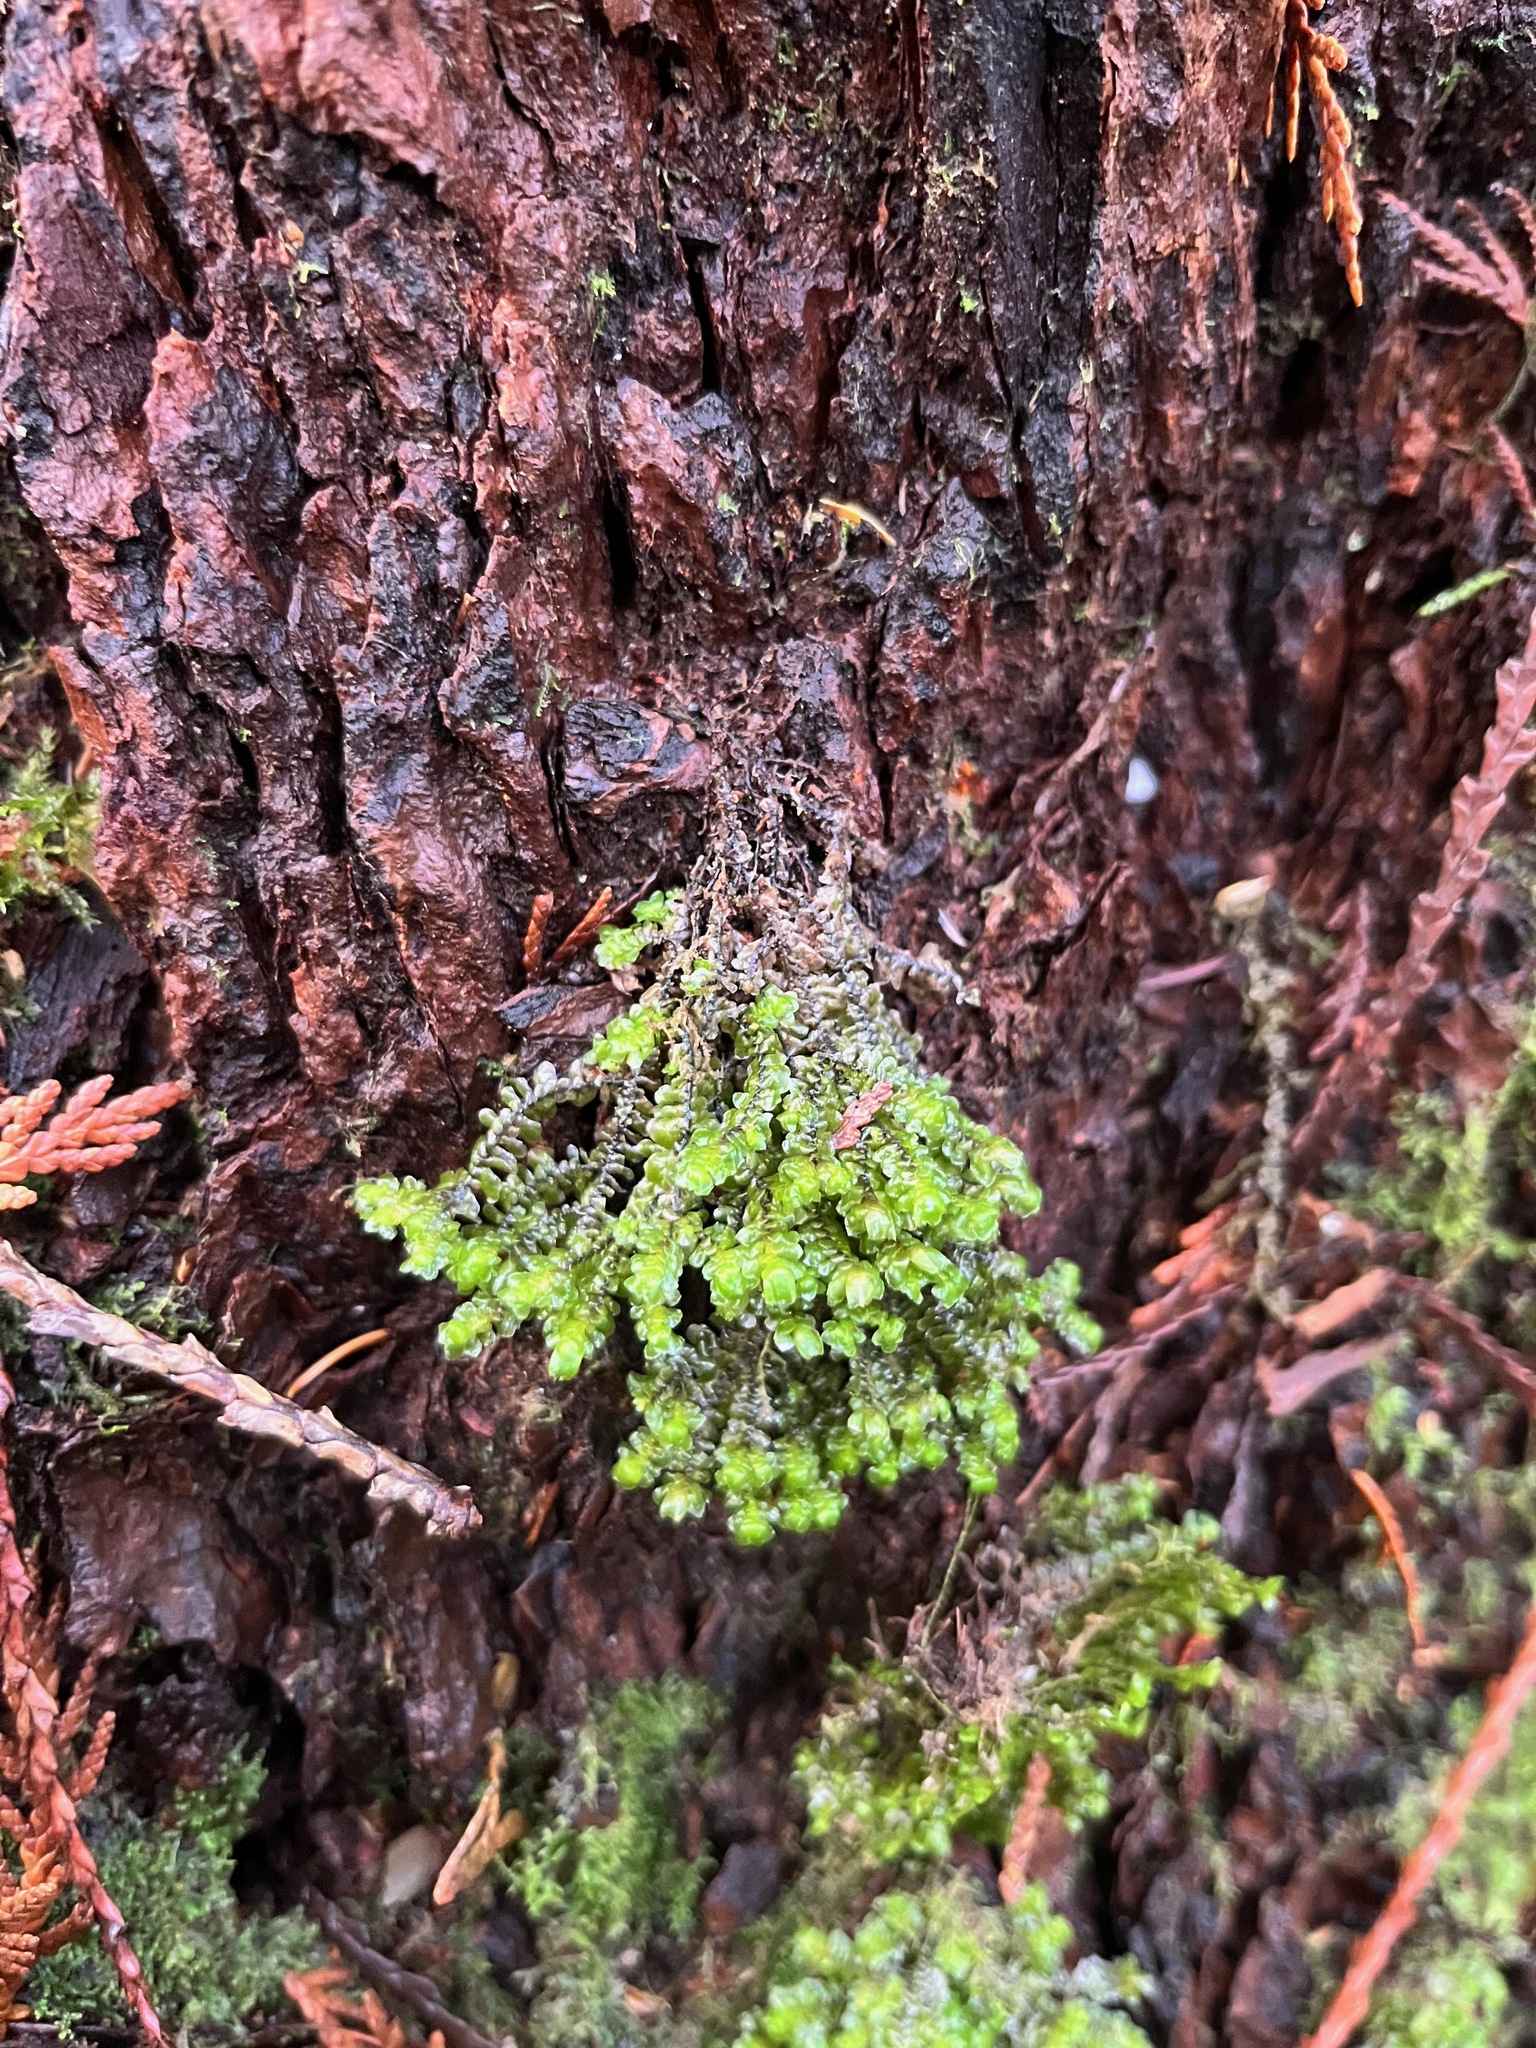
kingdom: Plantae
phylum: Marchantiophyta
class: Jungermanniopsida
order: Jungermanniales
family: Scapaniaceae
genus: Scapania
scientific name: Scapania bolanderi
